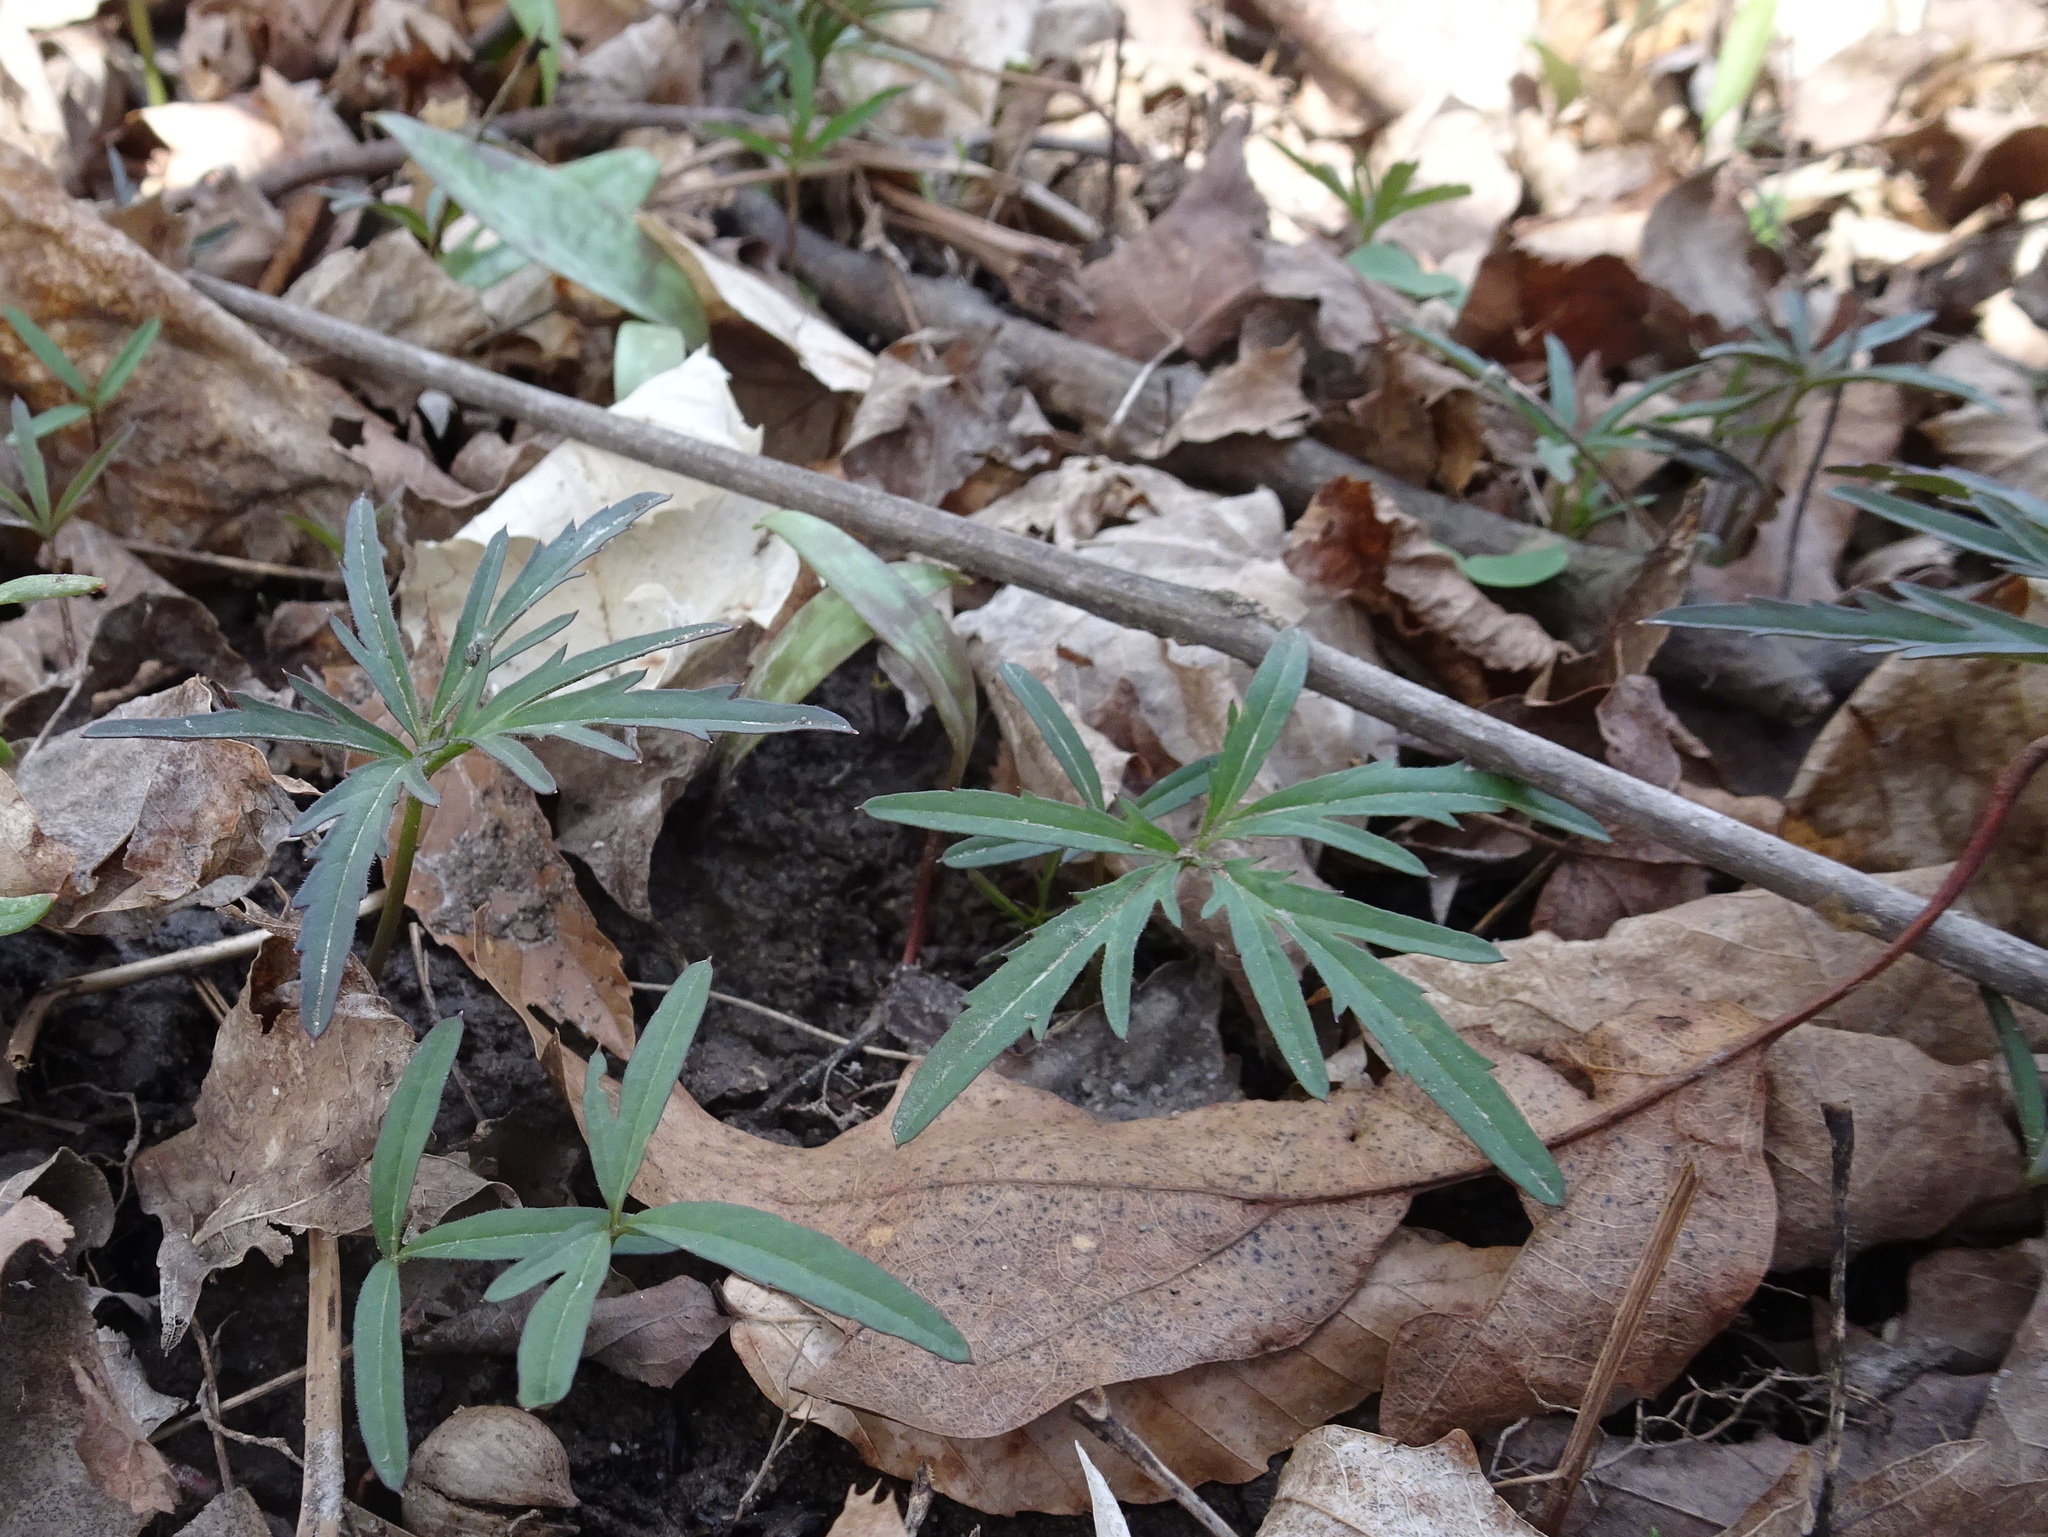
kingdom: Plantae
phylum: Tracheophyta
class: Magnoliopsida
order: Brassicales
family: Brassicaceae
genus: Cardamine
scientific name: Cardamine concatenata
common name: Cut-leaf toothcup
